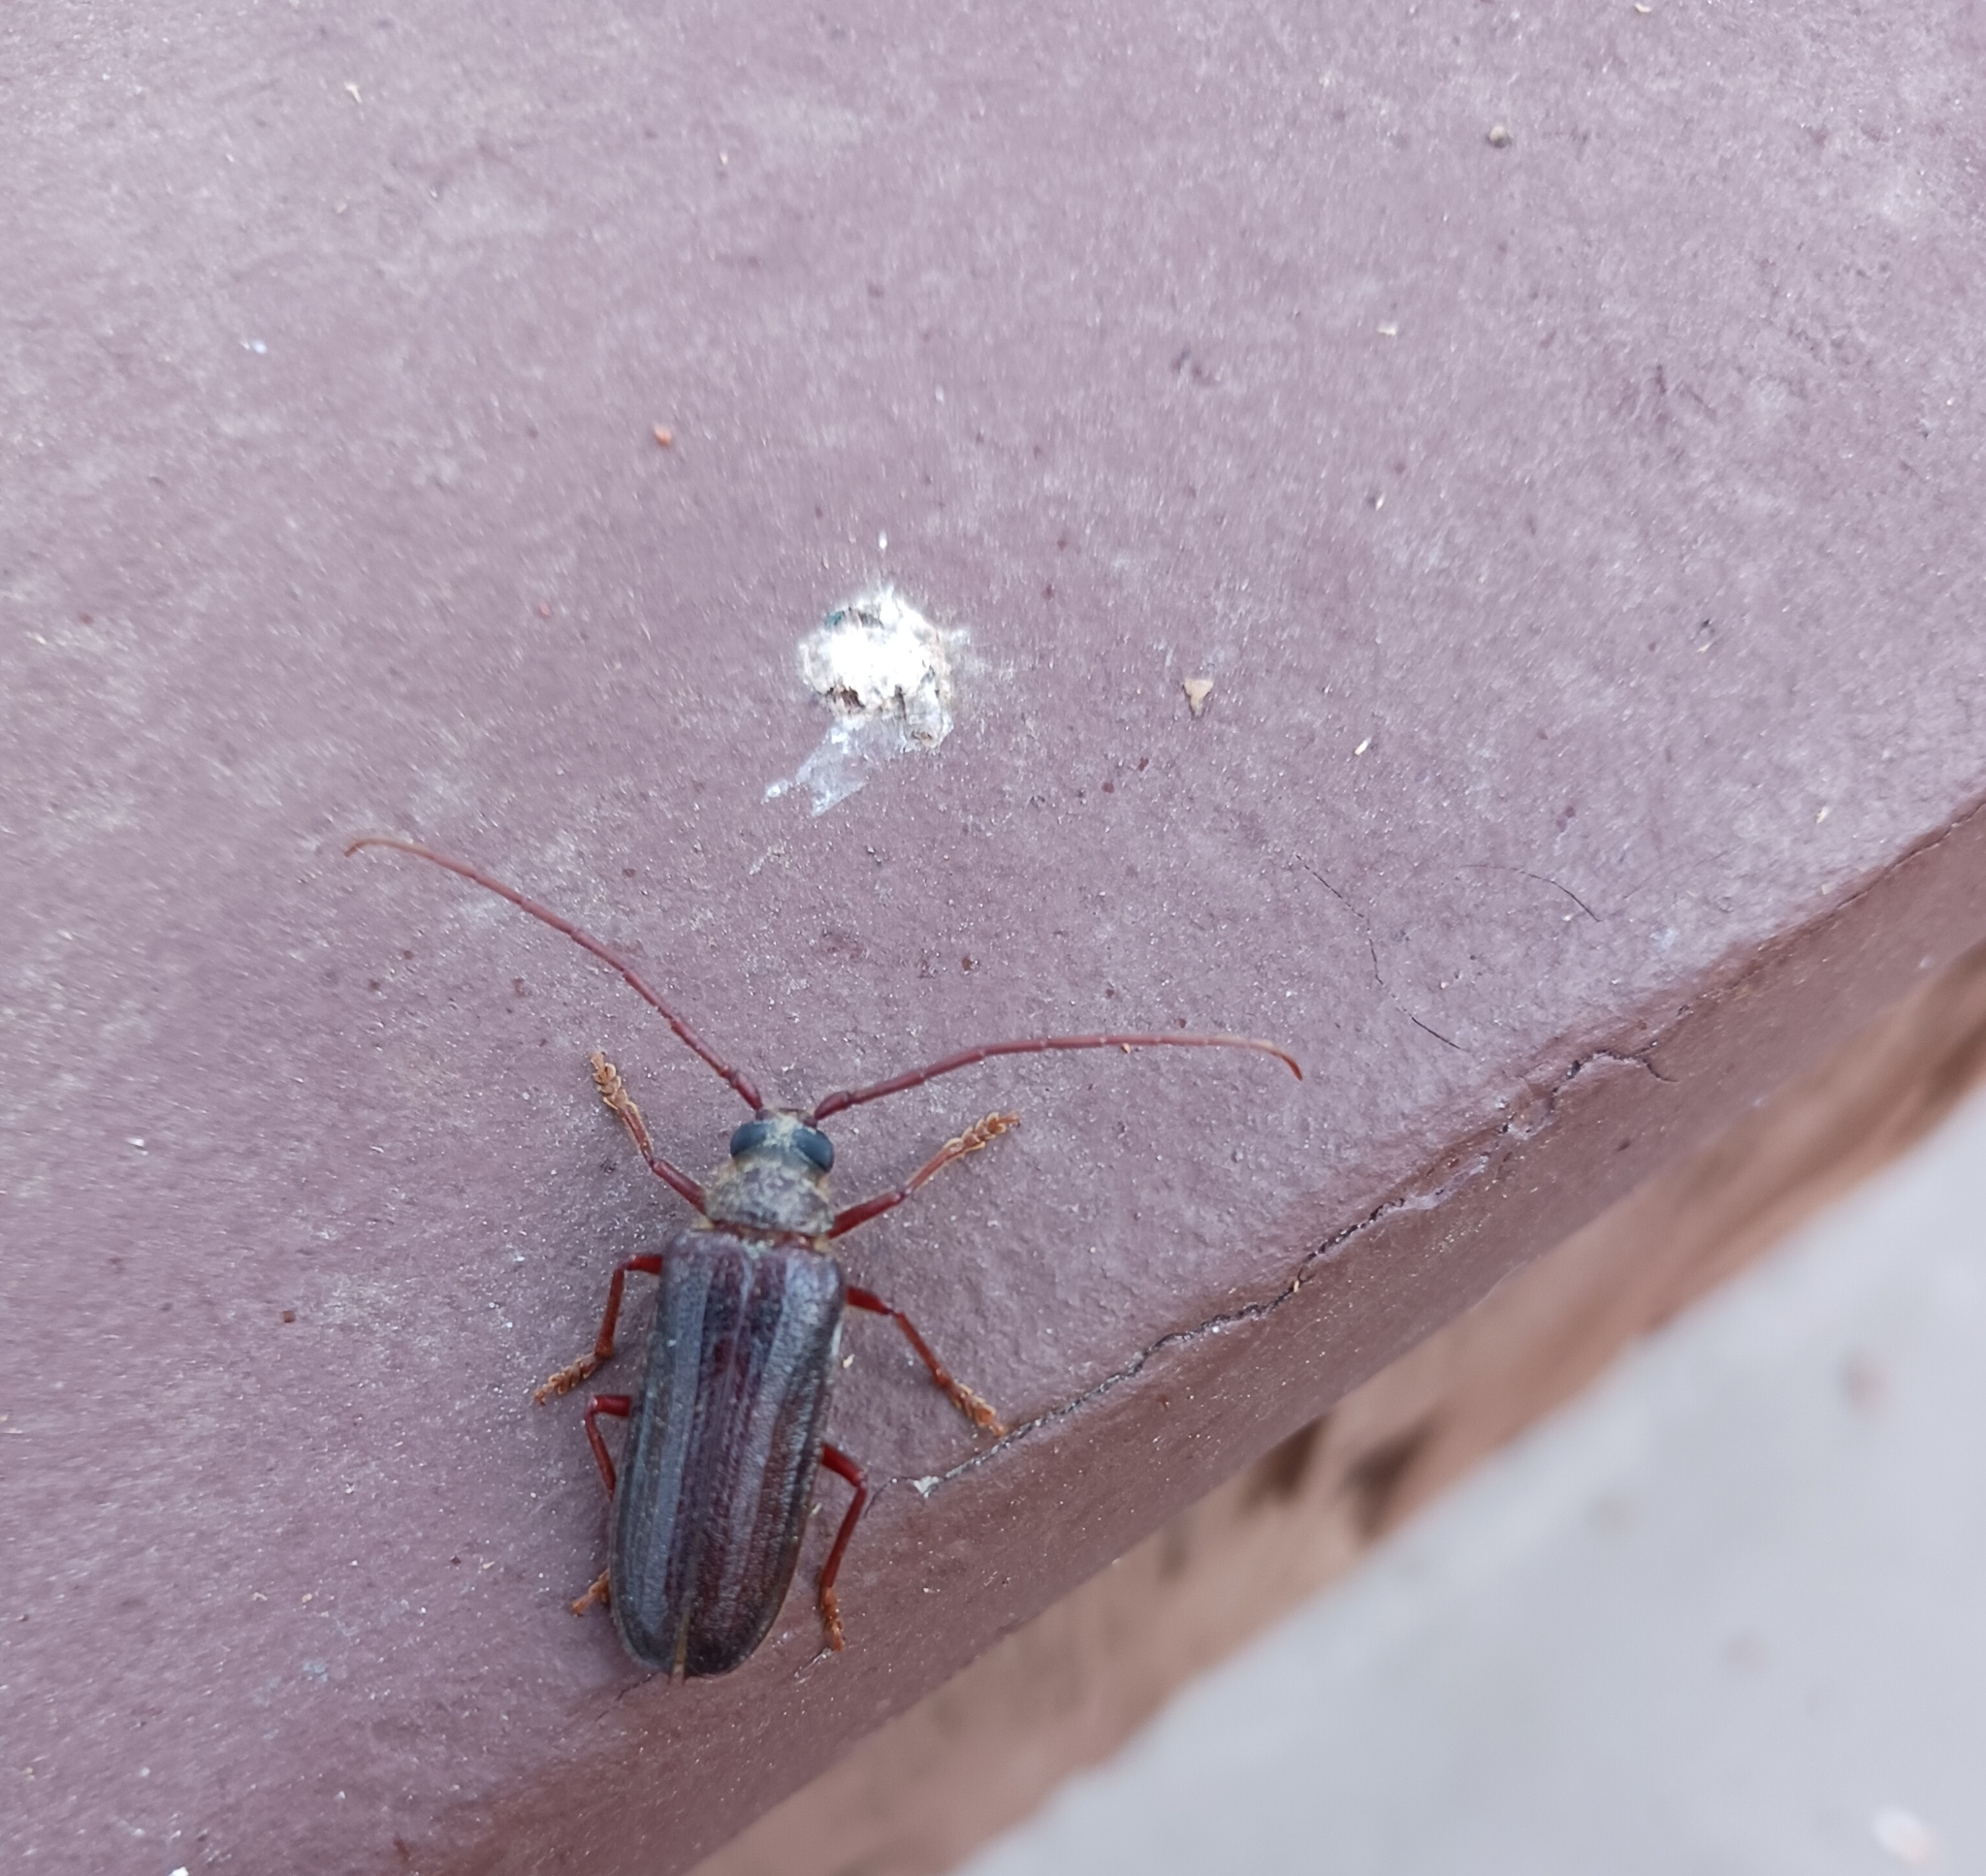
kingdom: Animalia
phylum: Arthropoda
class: Insecta
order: Coleoptera
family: Cerambycidae
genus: Tragosoma
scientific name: Tragosoma pilosicornis
